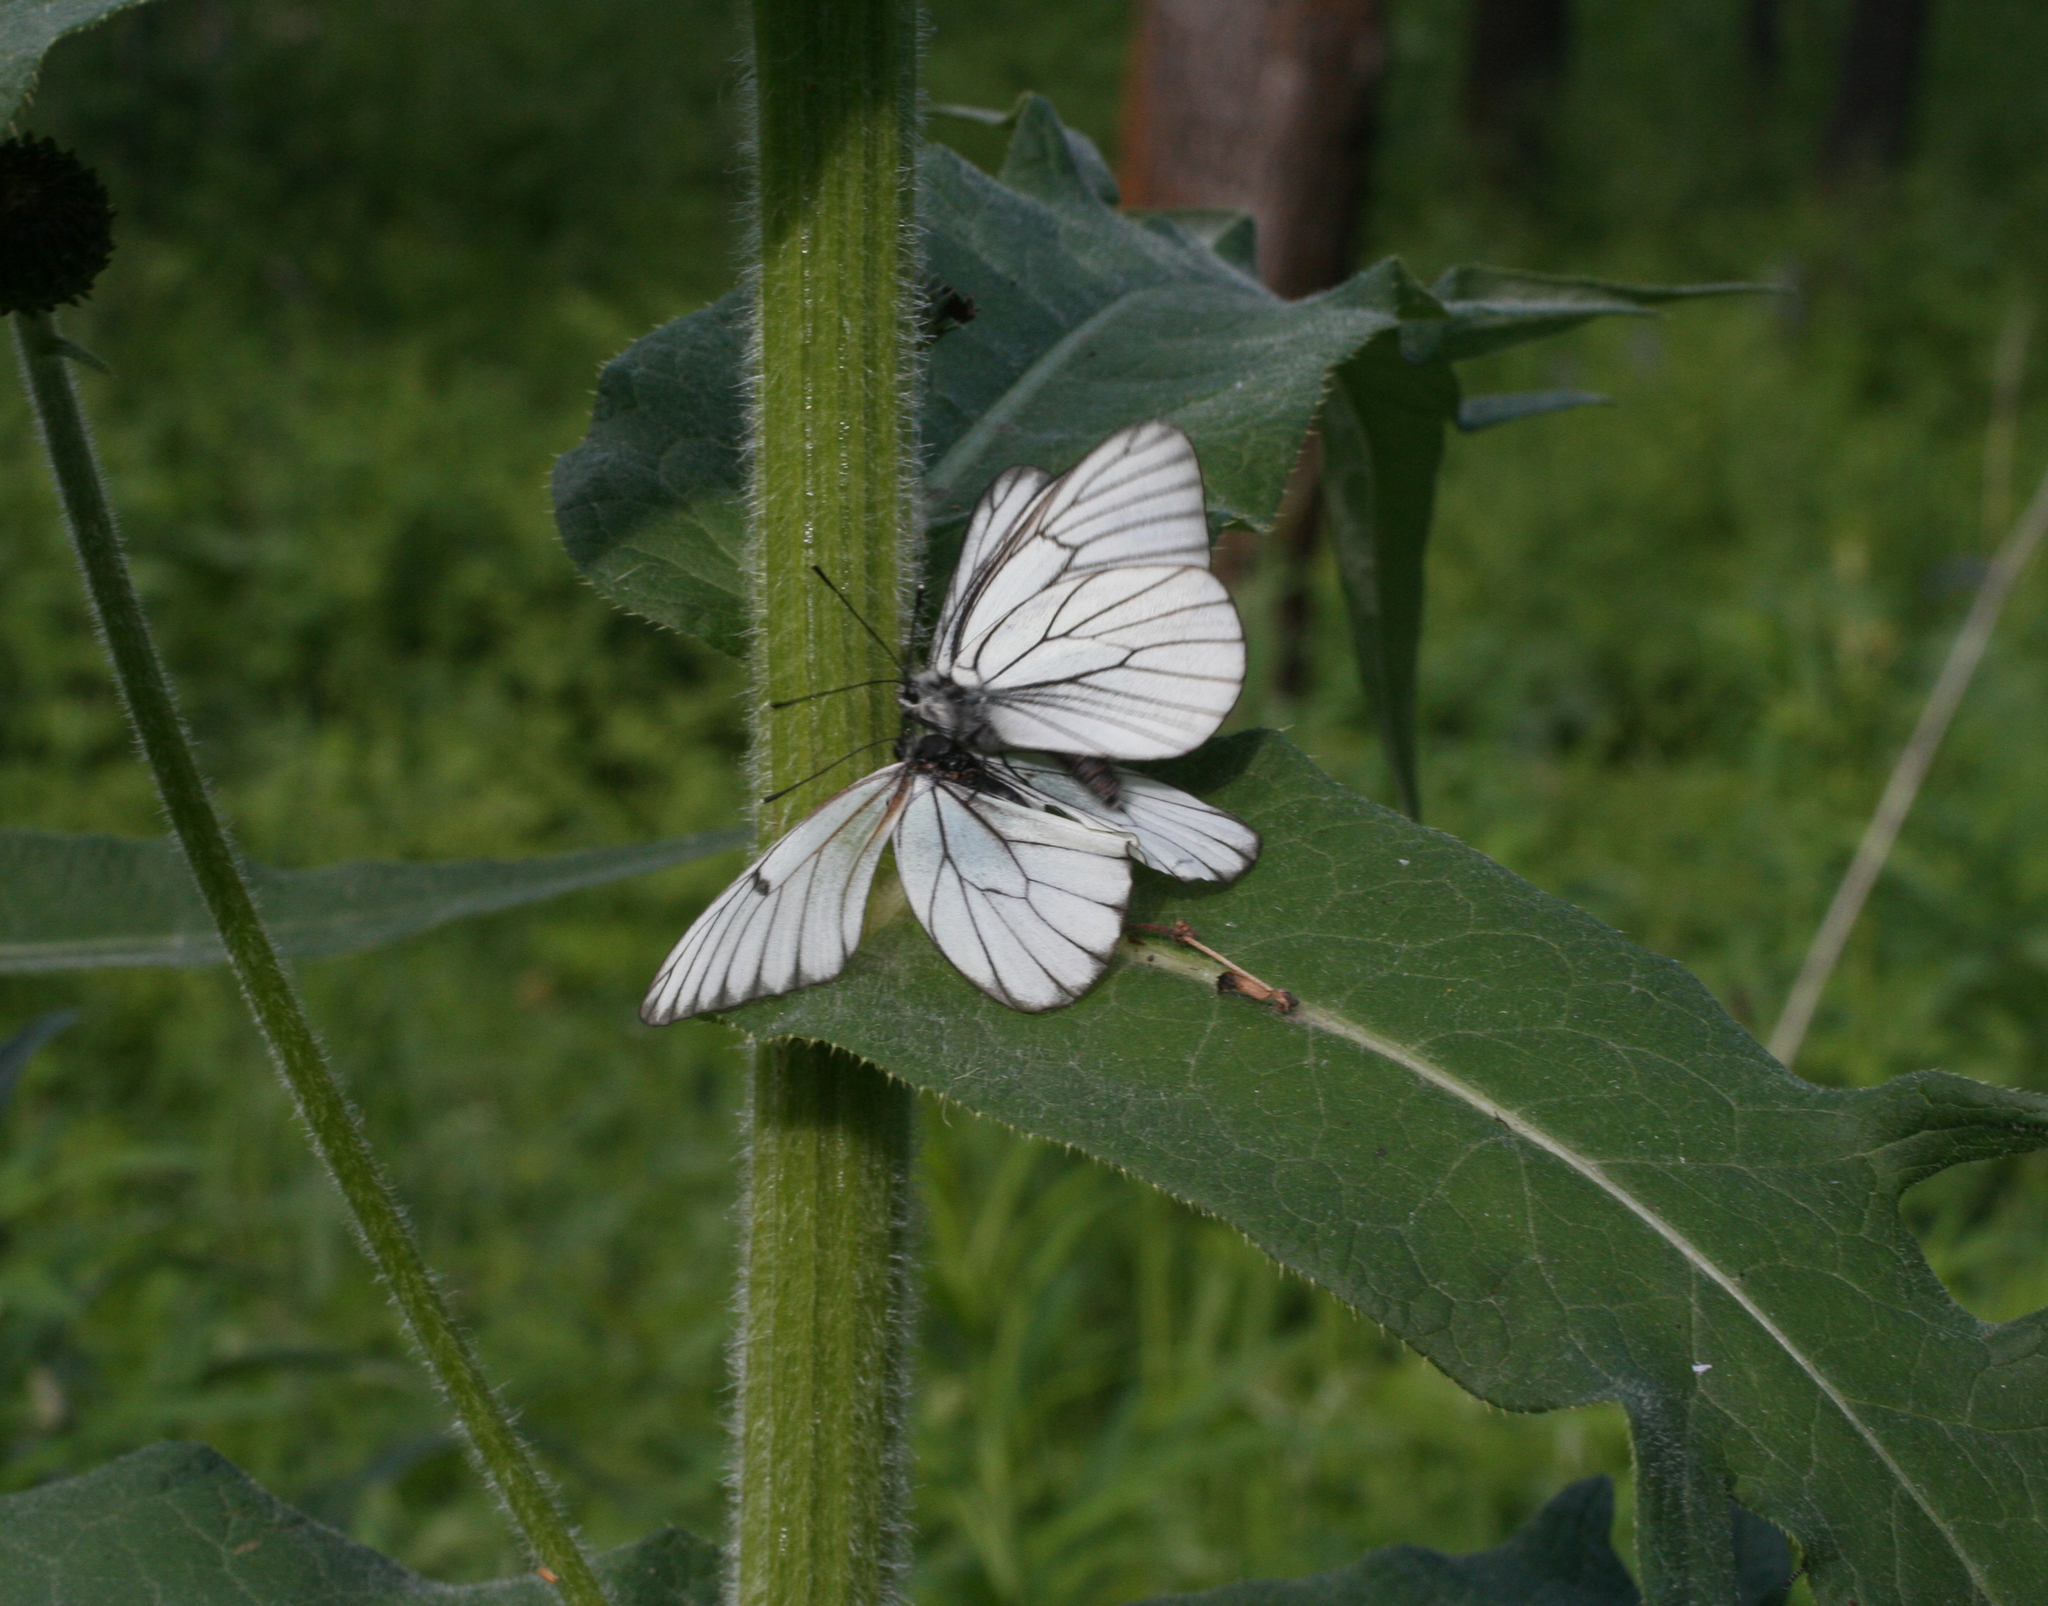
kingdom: Animalia
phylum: Arthropoda
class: Insecta
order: Lepidoptera
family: Pieridae
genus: Aporia
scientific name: Aporia crataegi
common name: Black-veined white
